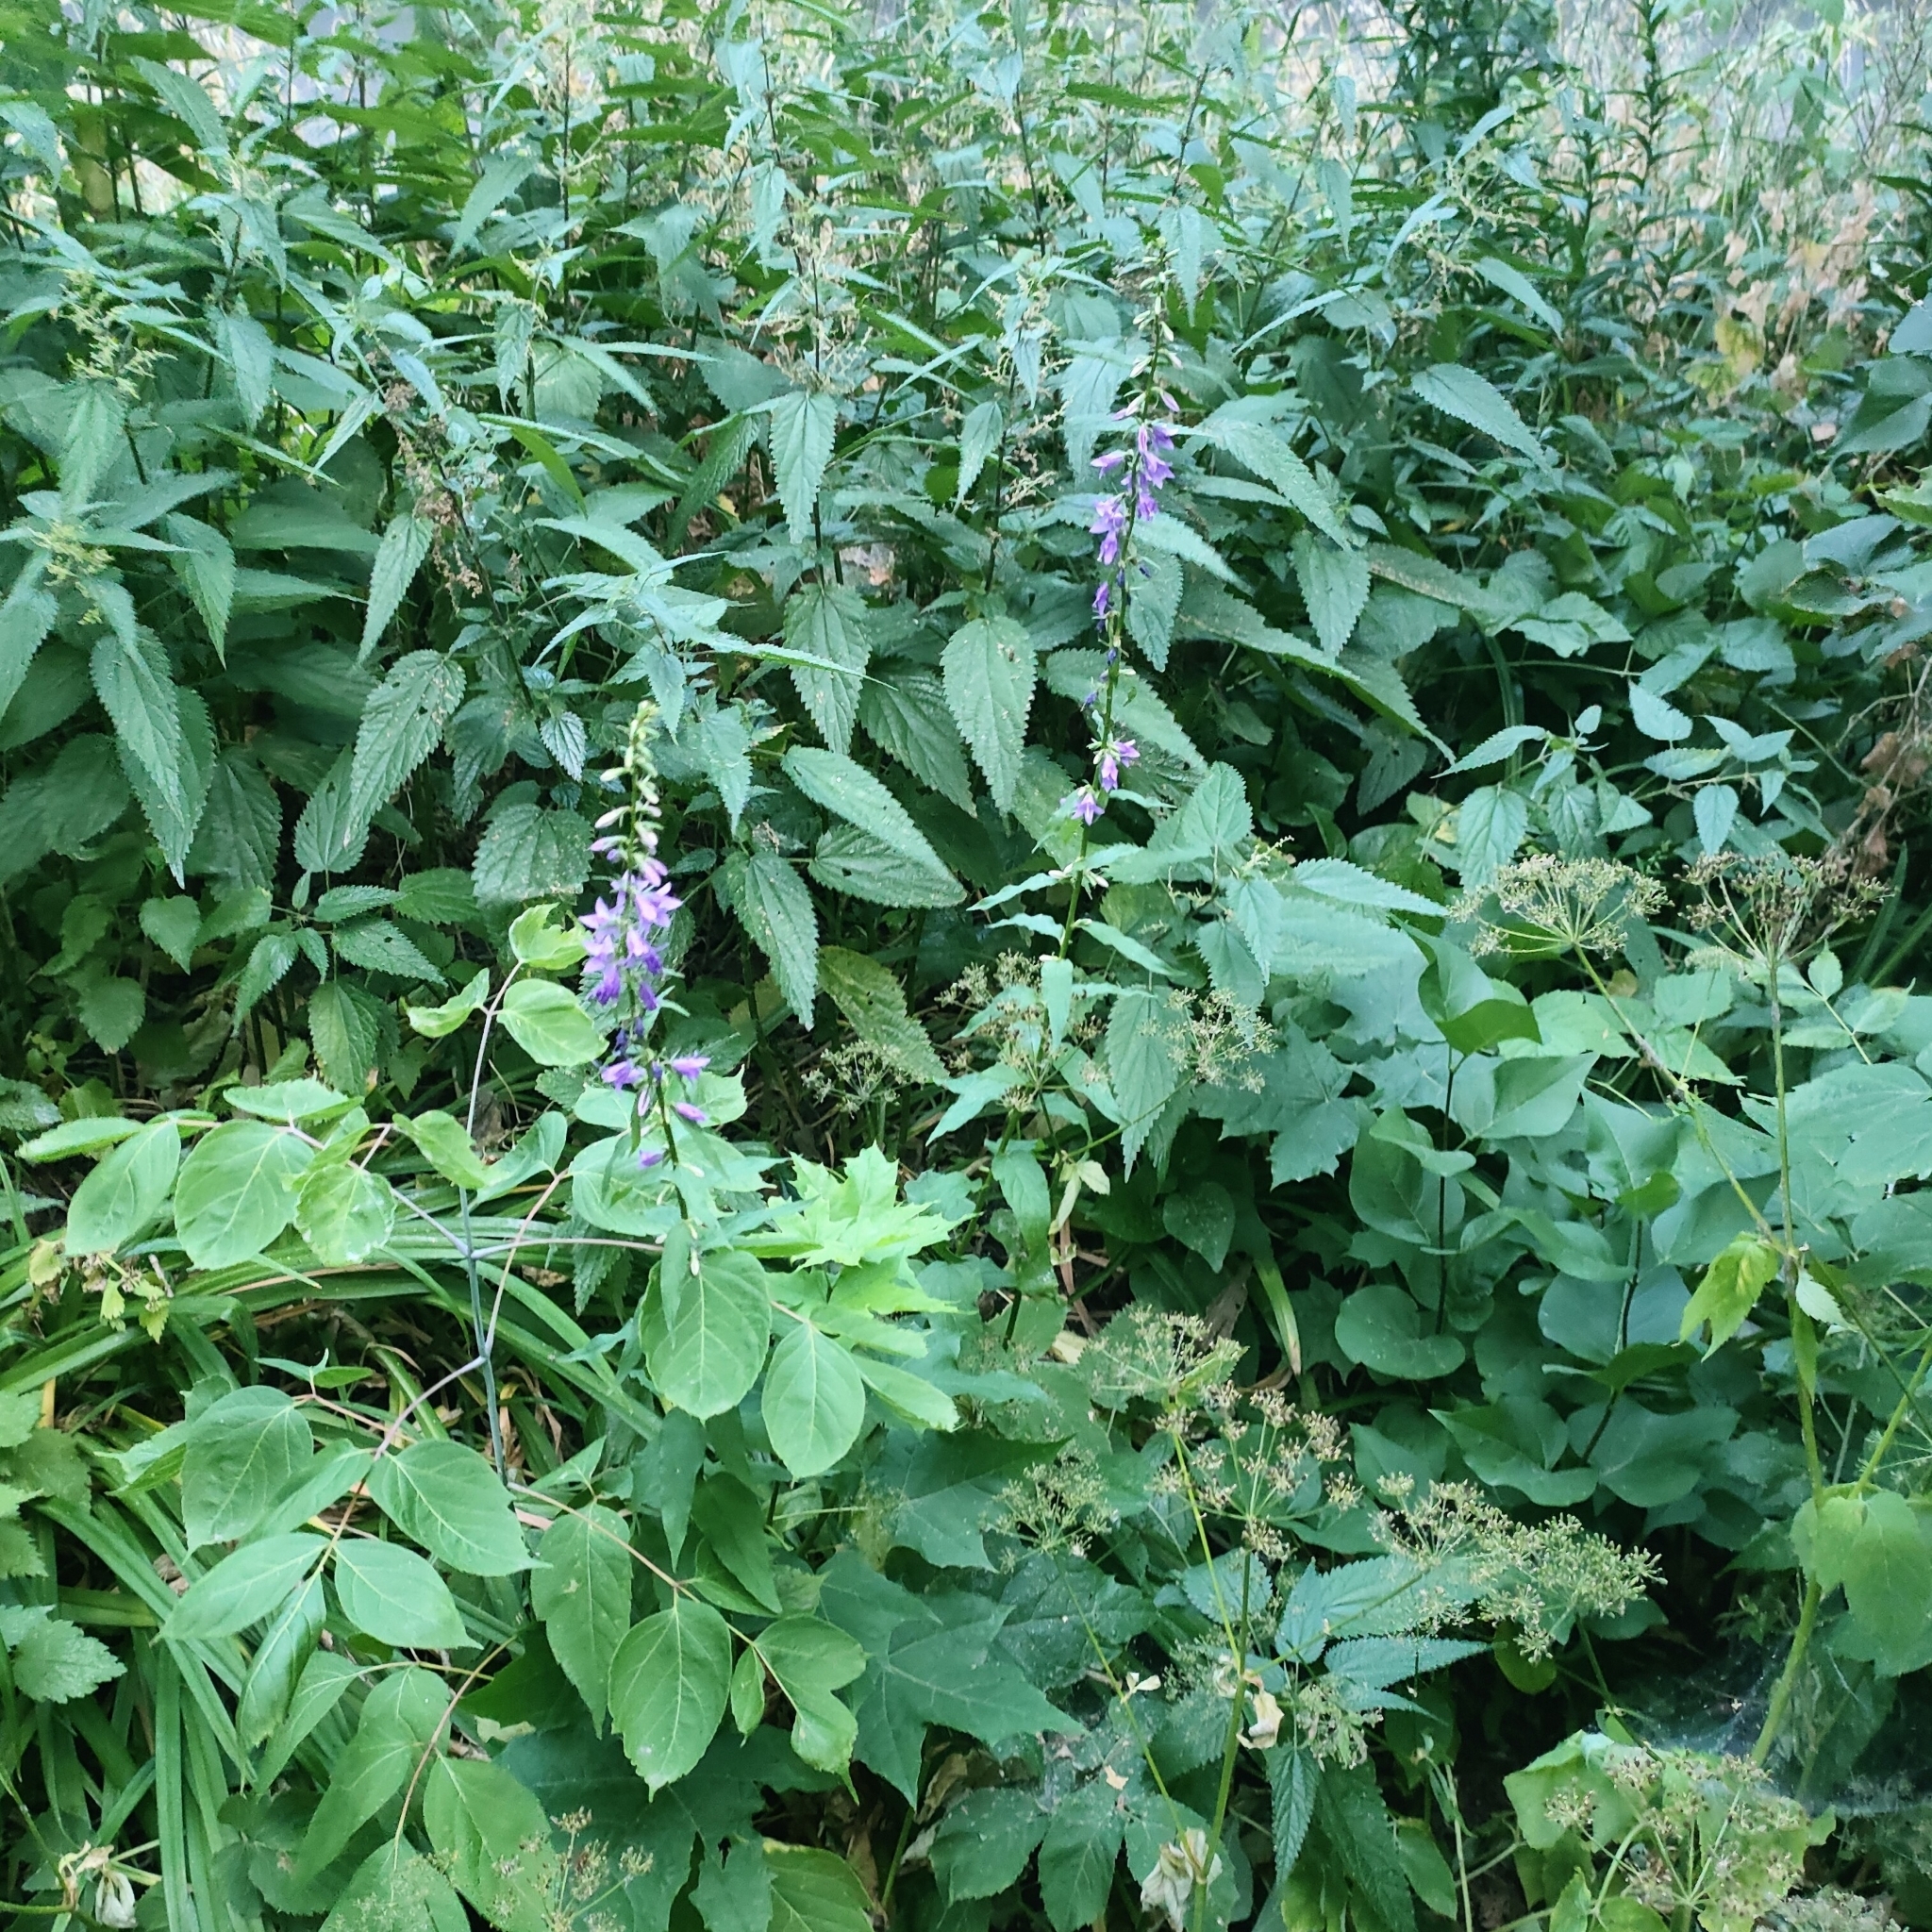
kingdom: Plantae
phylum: Tracheophyta
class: Magnoliopsida
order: Asterales
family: Campanulaceae
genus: Campanula
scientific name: Campanula rapunculoides
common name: Creeping bellflower
